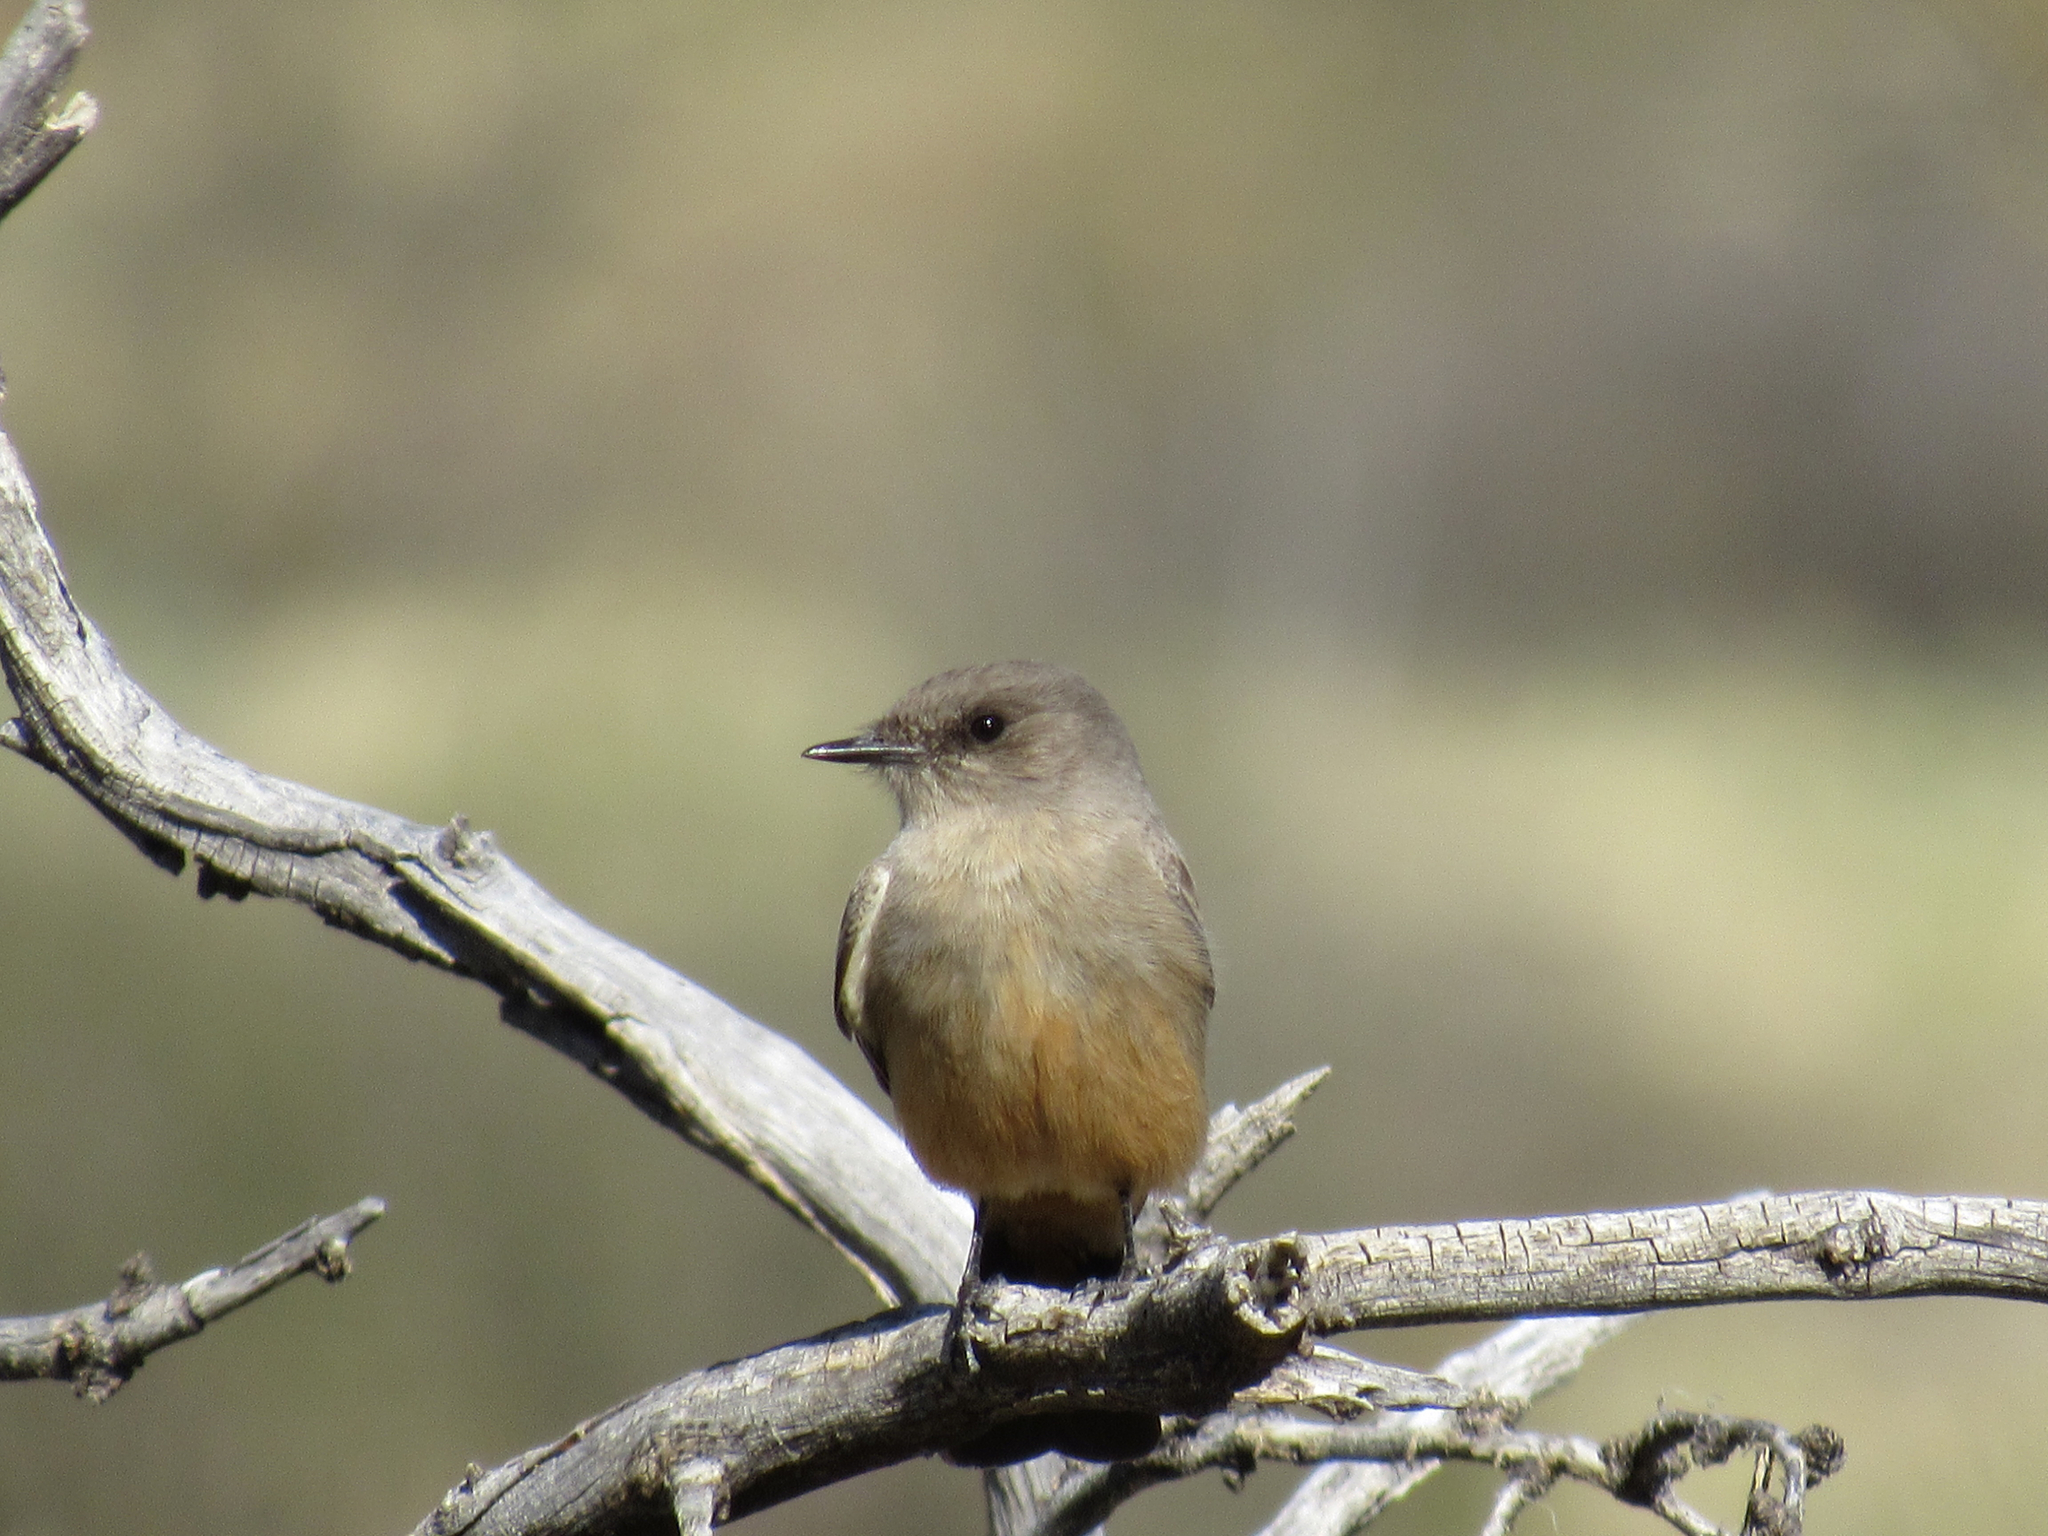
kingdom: Animalia
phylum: Chordata
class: Aves
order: Passeriformes
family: Tyrannidae
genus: Sayornis
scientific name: Sayornis saya
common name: Say's phoebe
